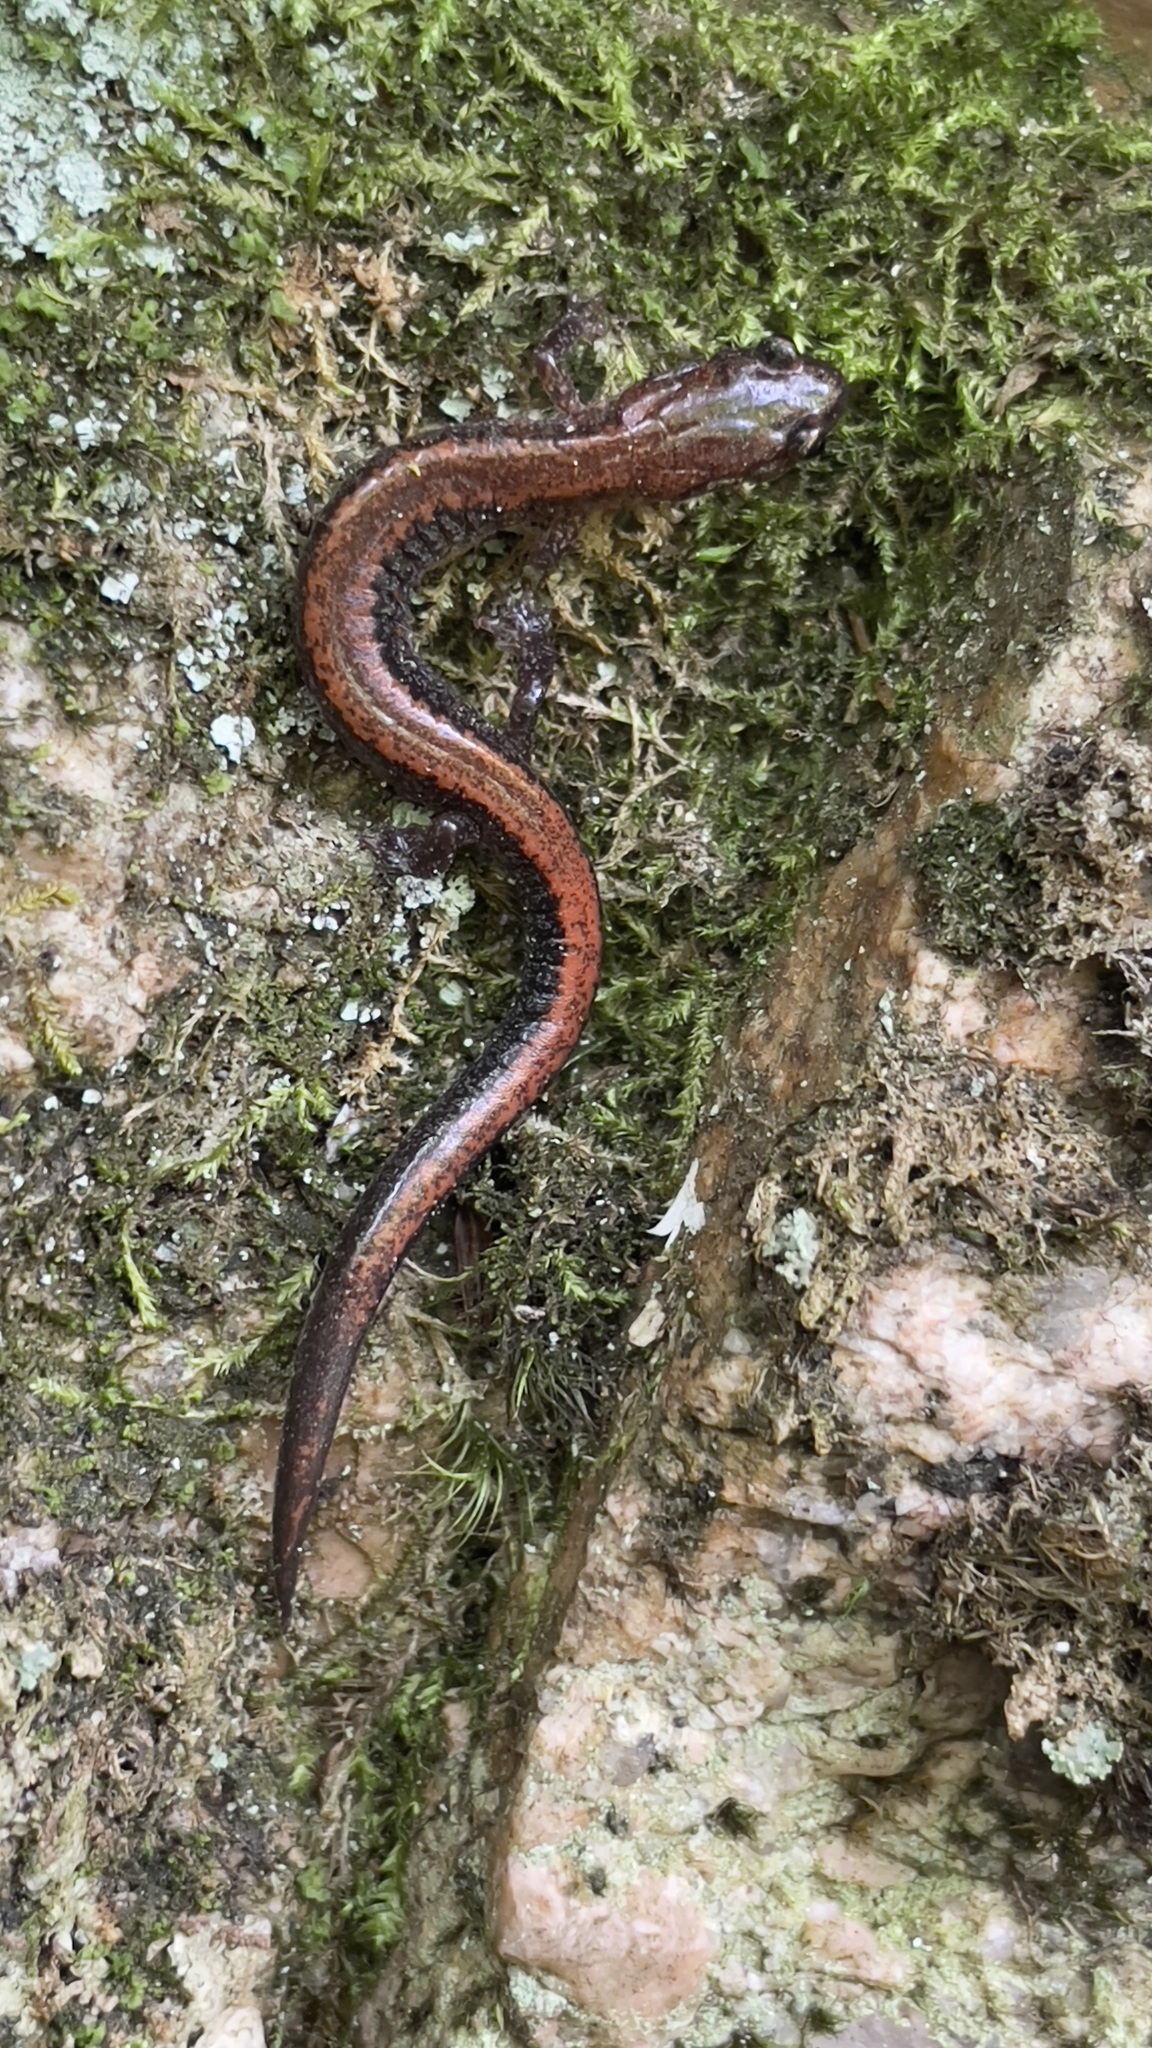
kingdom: Animalia
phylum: Chordata
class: Amphibia
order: Caudata
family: Plethodontidae
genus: Plethodon
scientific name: Plethodon cinereus
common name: Redback salamander
